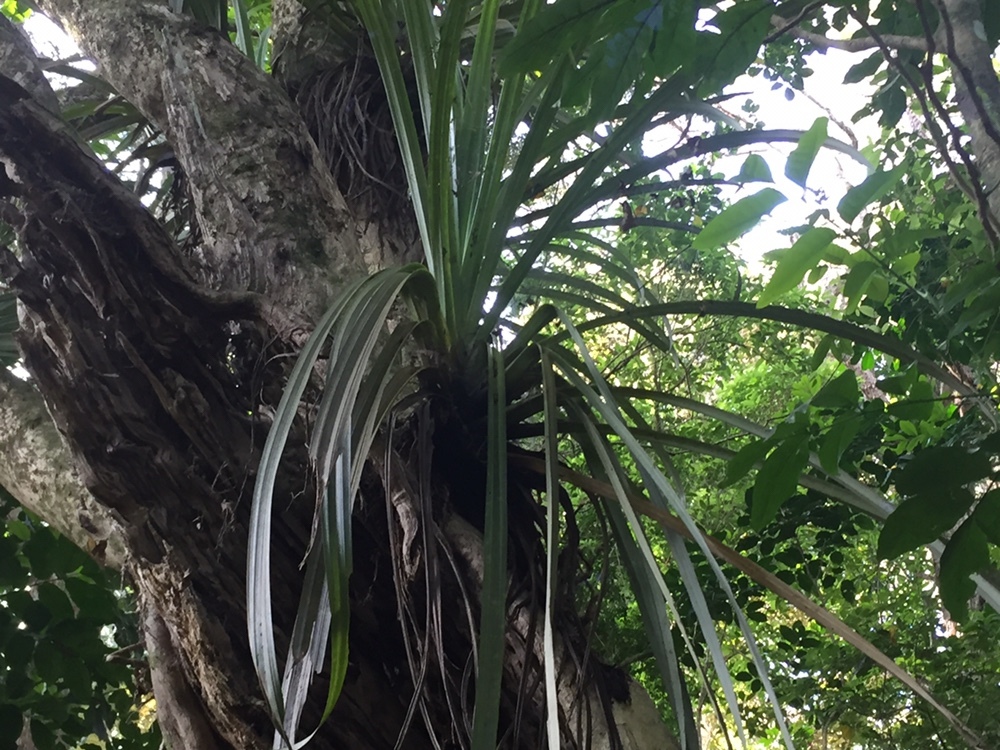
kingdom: Plantae
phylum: Tracheophyta
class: Liliopsida
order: Asparagales
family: Asteliaceae
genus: Astelia
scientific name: Astelia hastata
